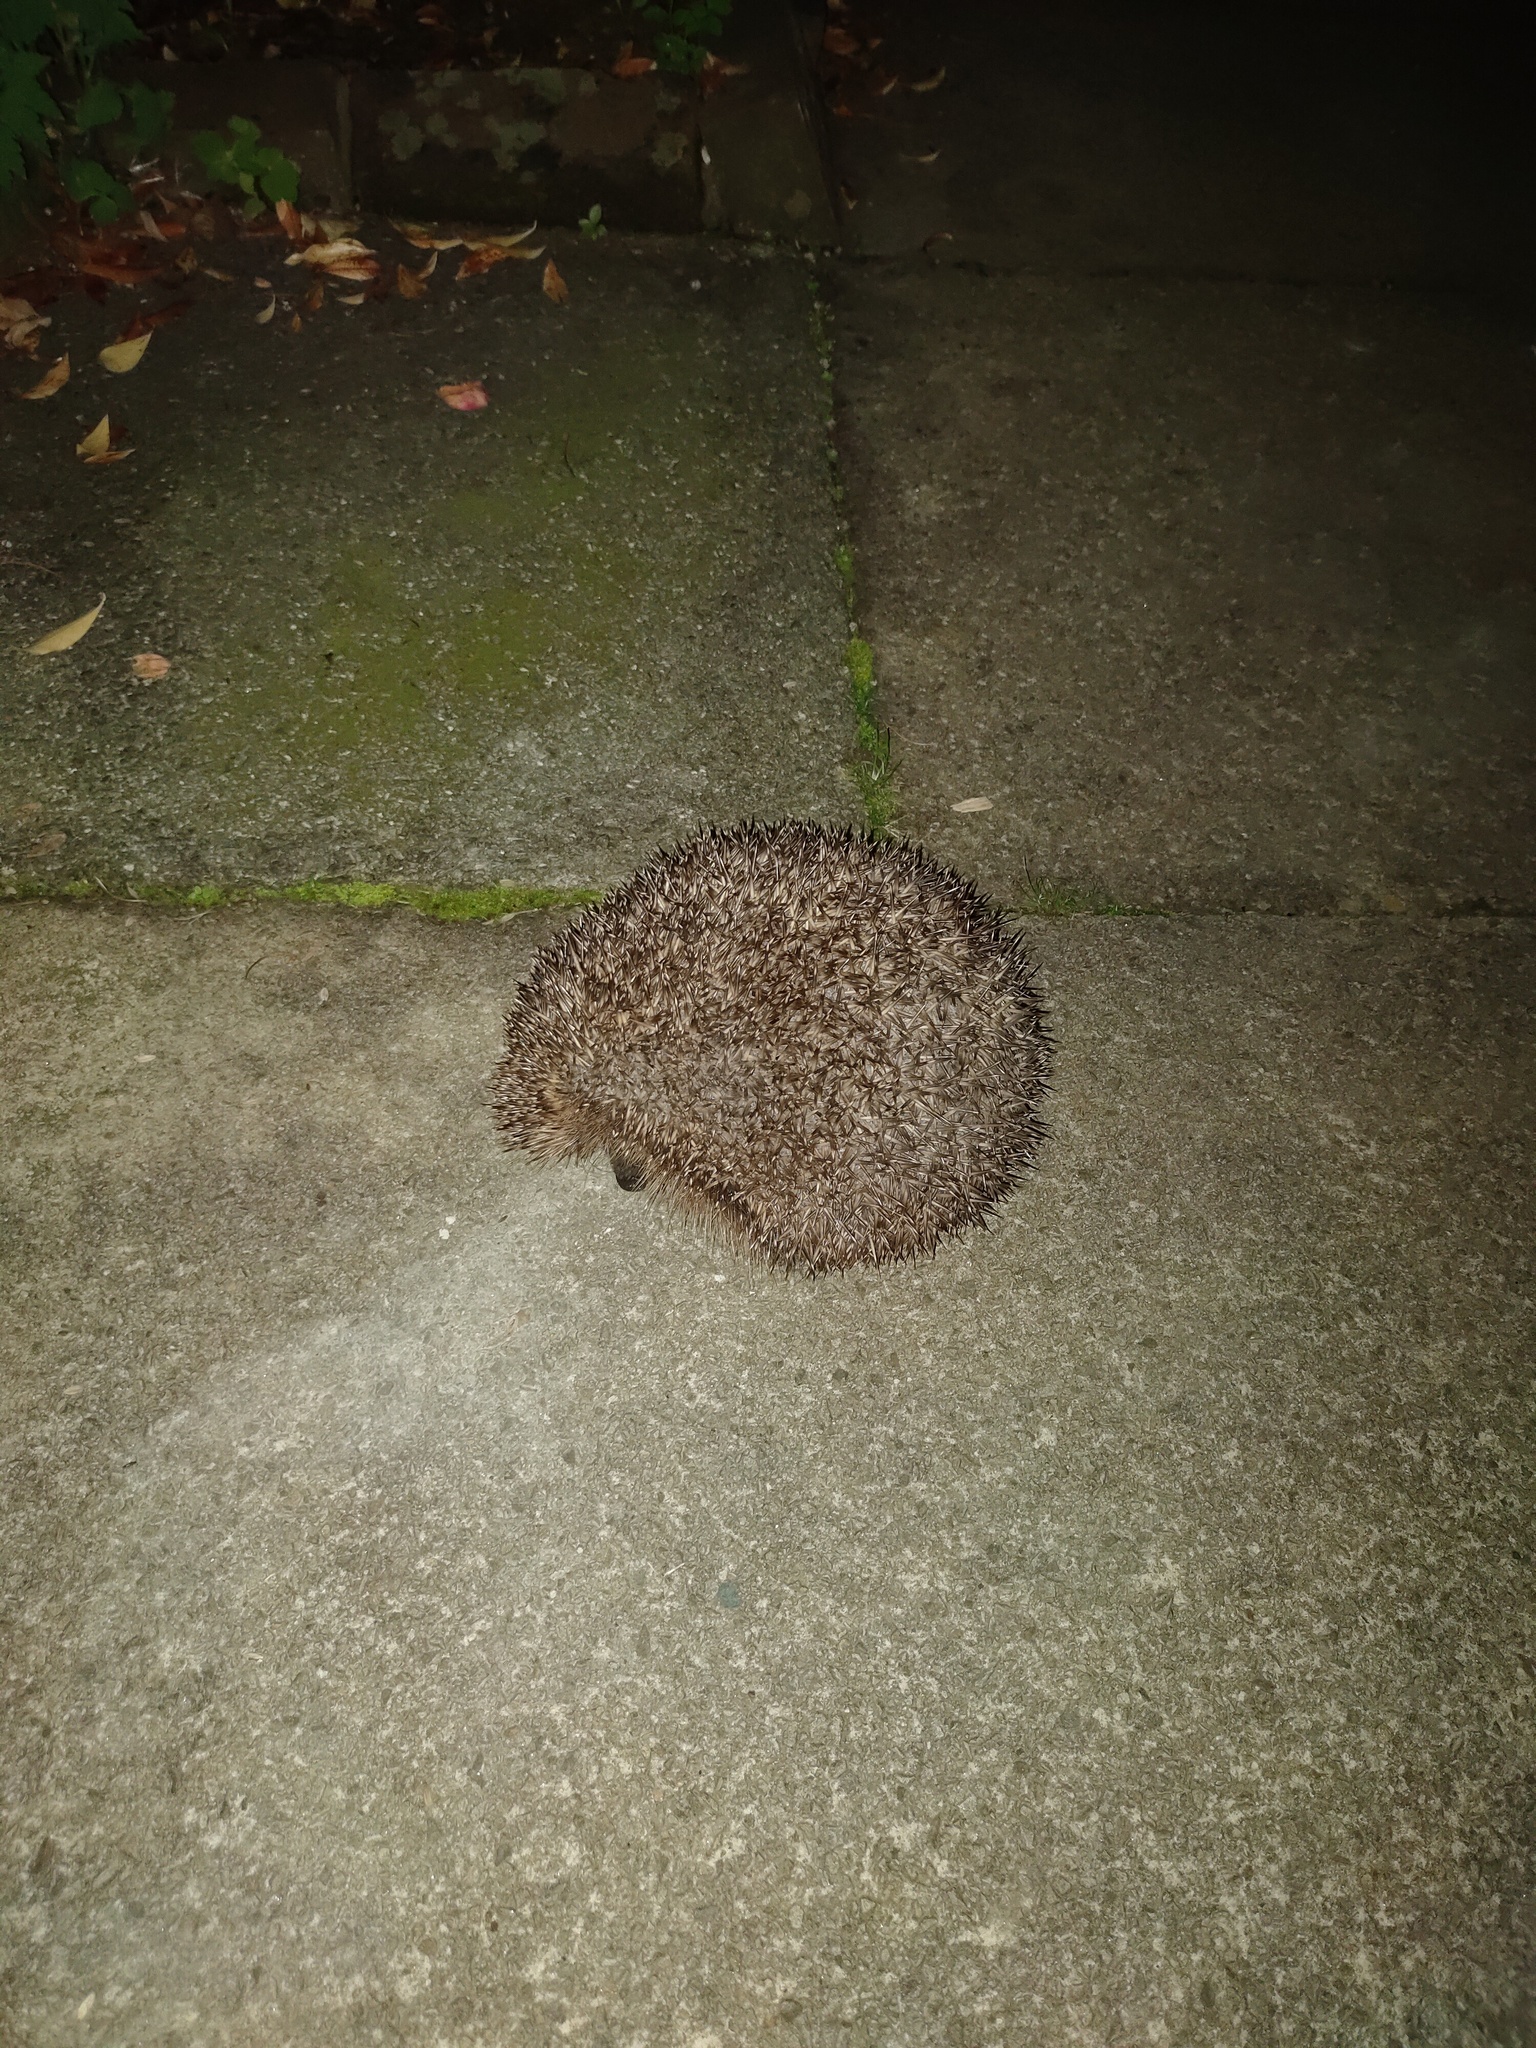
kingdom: Animalia
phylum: Chordata
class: Mammalia
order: Erinaceomorpha
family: Erinaceidae
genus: Erinaceus
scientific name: Erinaceus europaeus
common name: West european hedgehog
